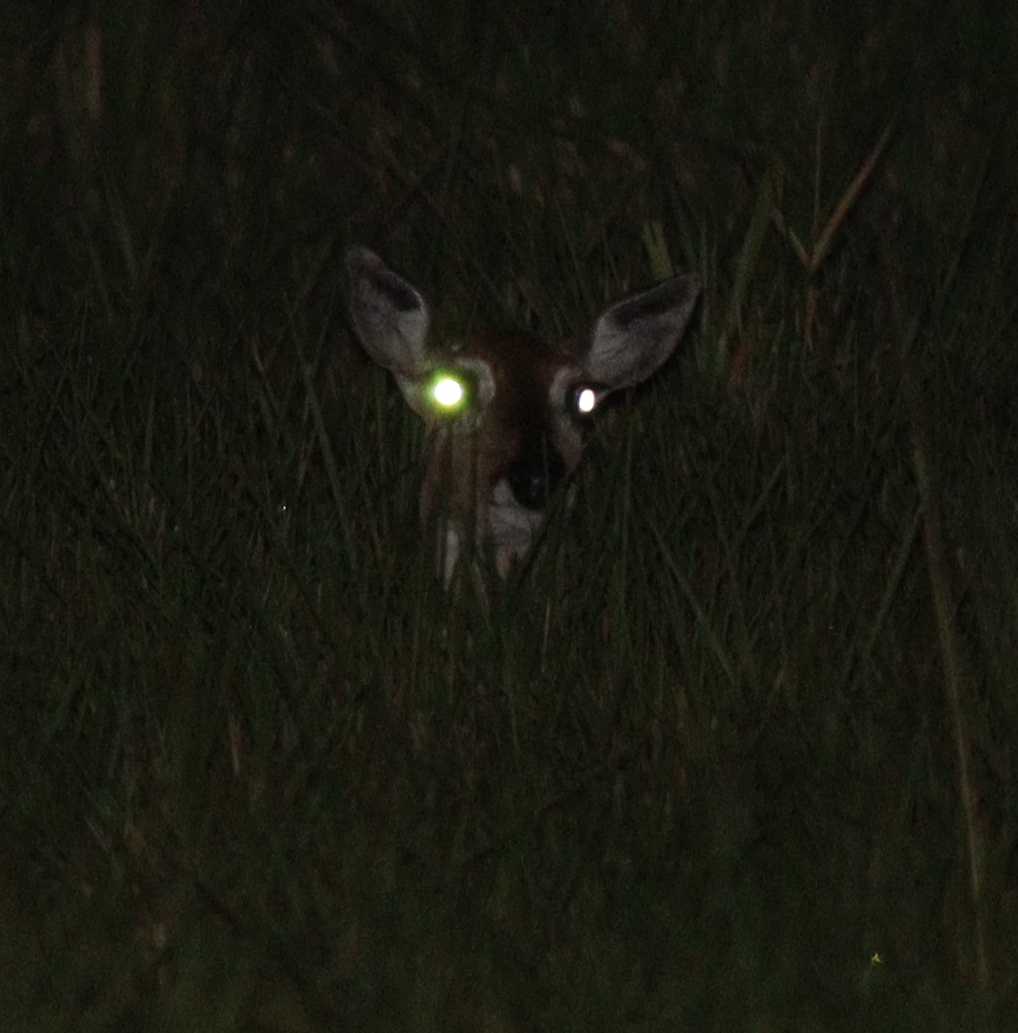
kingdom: Animalia
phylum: Chordata
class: Mammalia
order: Artiodactyla
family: Cervidae
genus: Ozotoceros
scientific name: Ozotoceros bezoarticus
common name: Pampas deer
